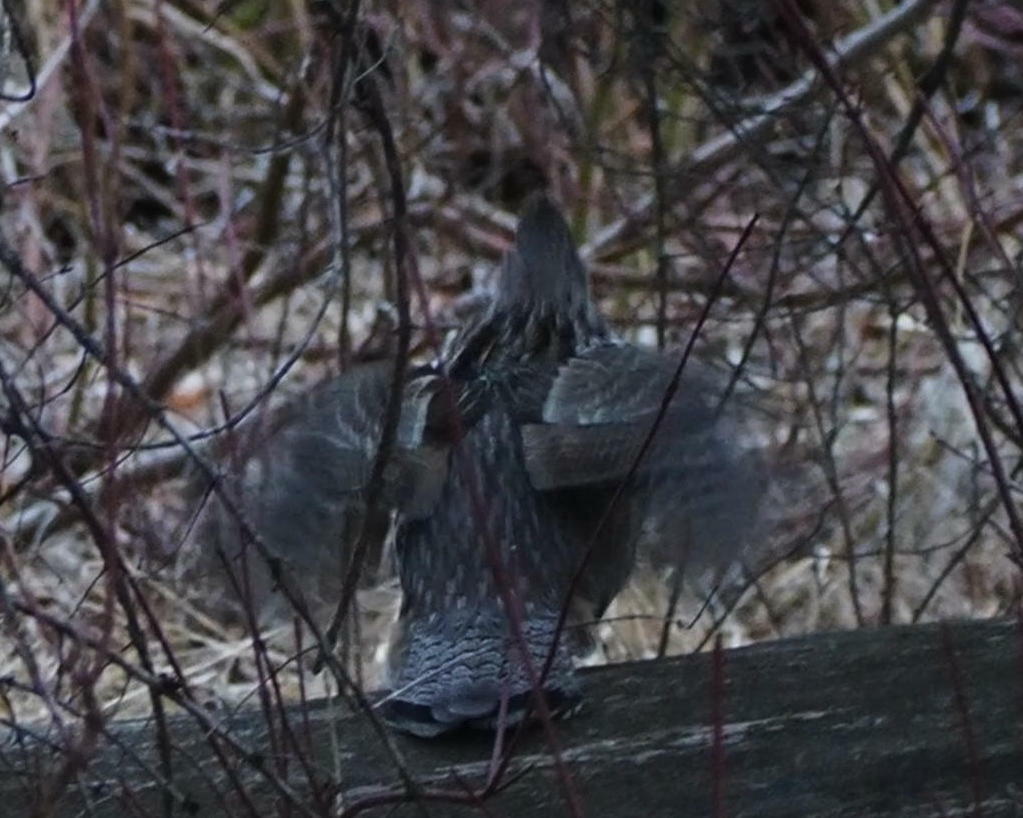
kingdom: Animalia
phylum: Chordata
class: Aves
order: Galliformes
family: Phasianidae
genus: Bonasa
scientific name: Bonasa umbellus
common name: Ruffed grouse
